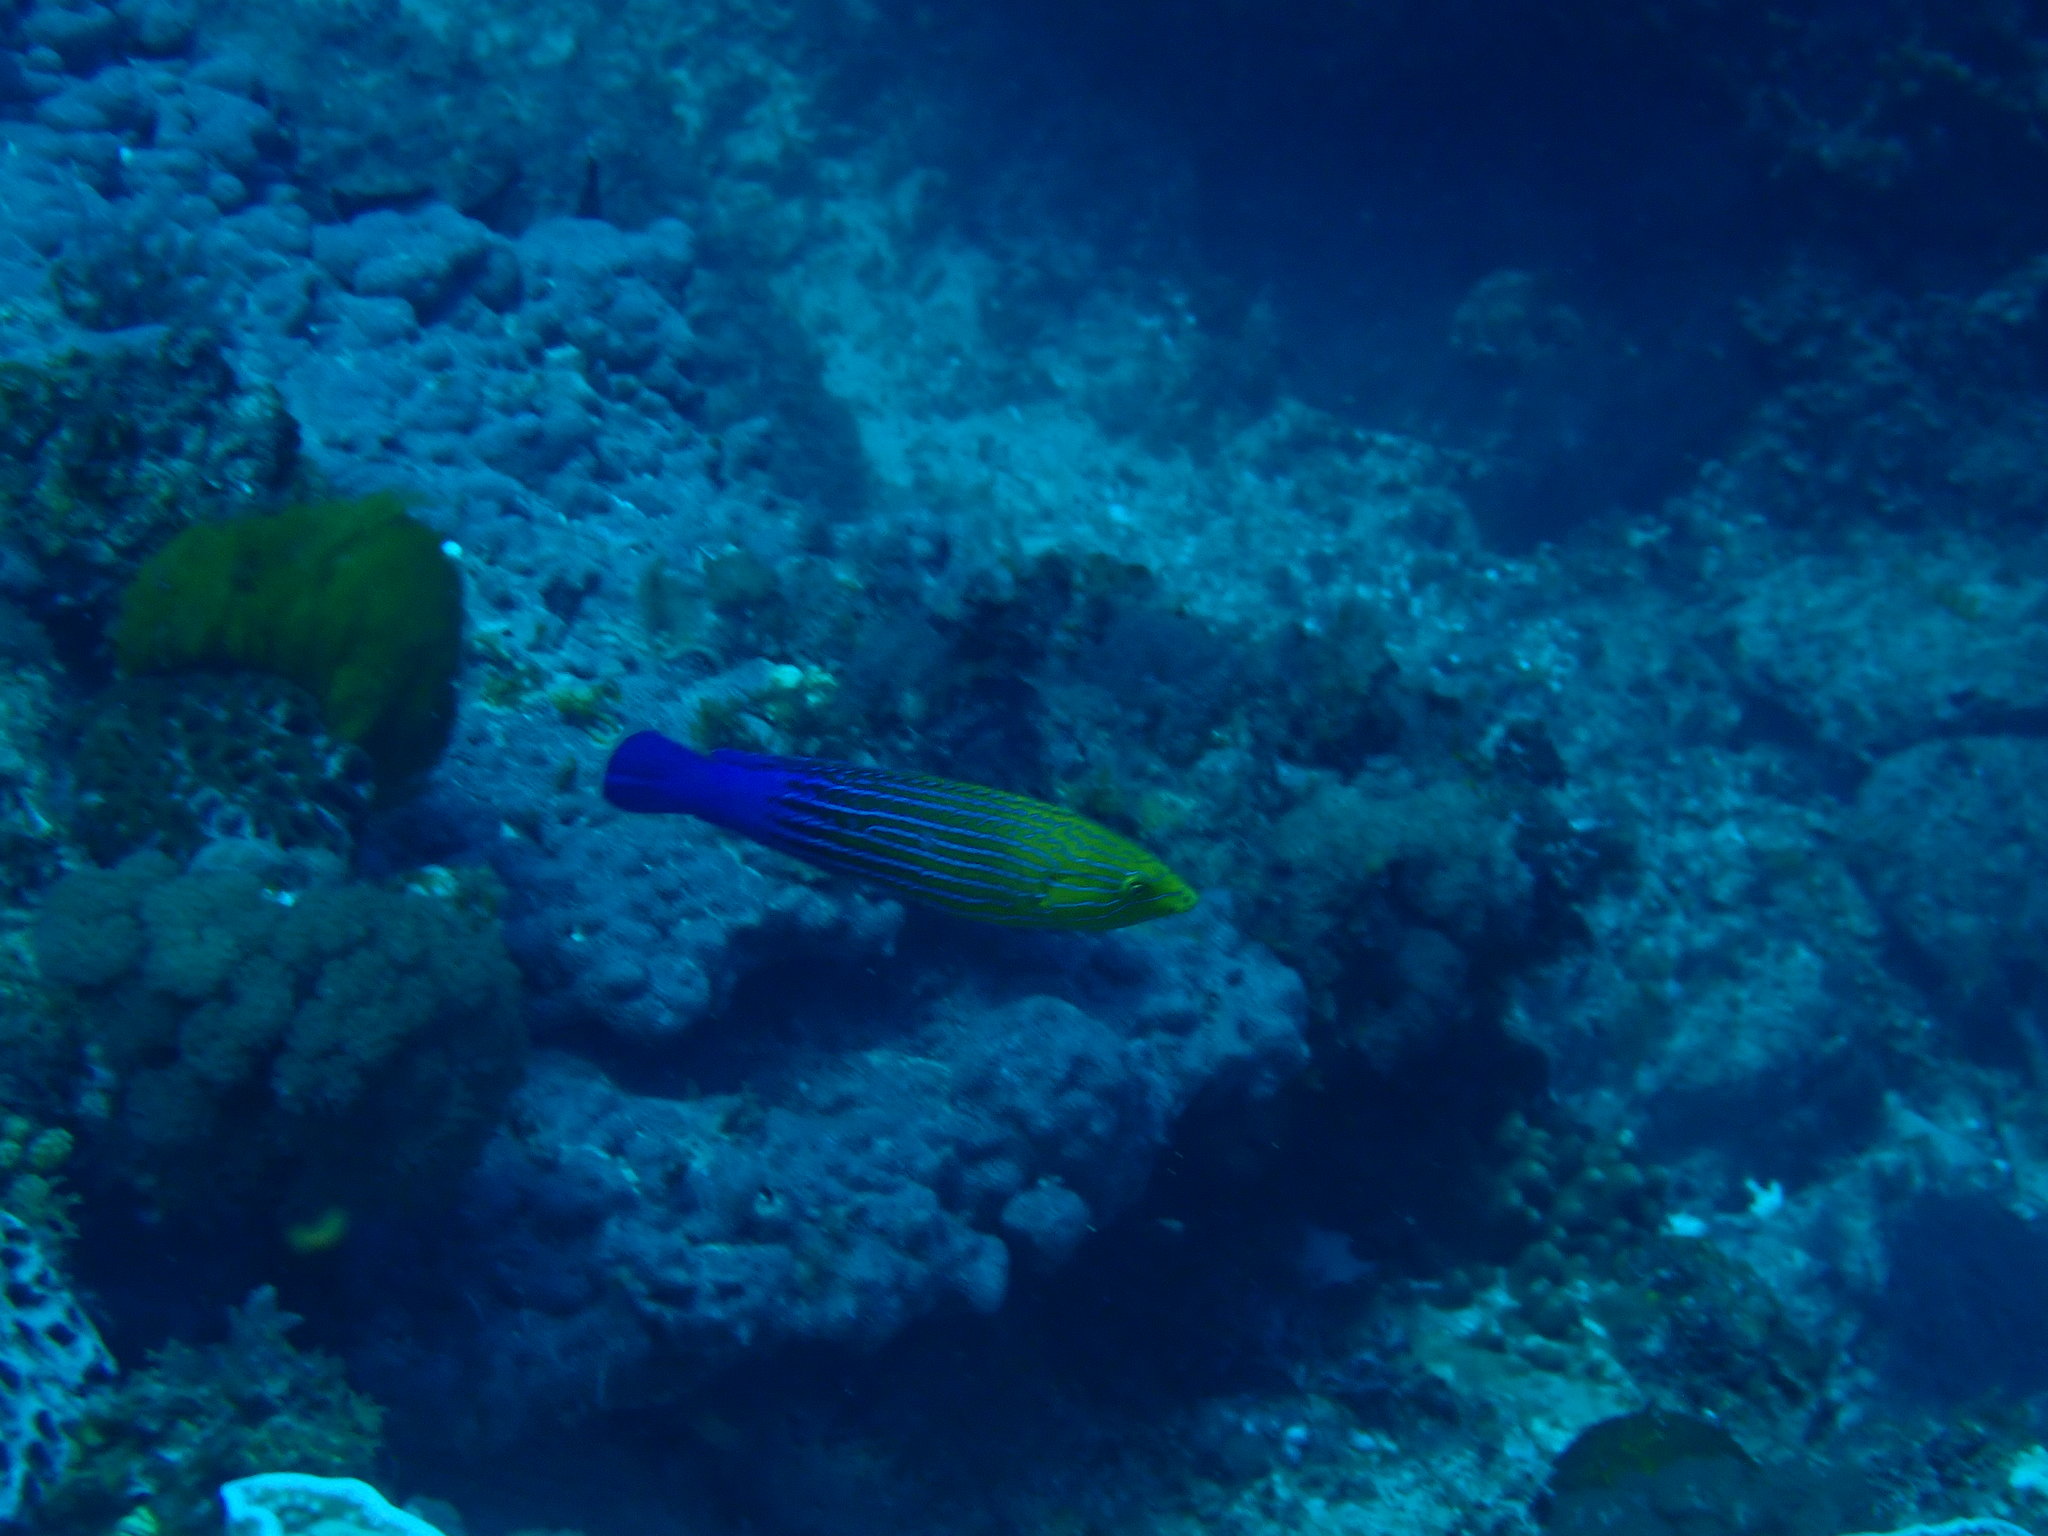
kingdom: Animalia
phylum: Chordata
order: Perciformes
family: Labridae
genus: Anampses
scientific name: Anampses femininus
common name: Feminine wrasse
